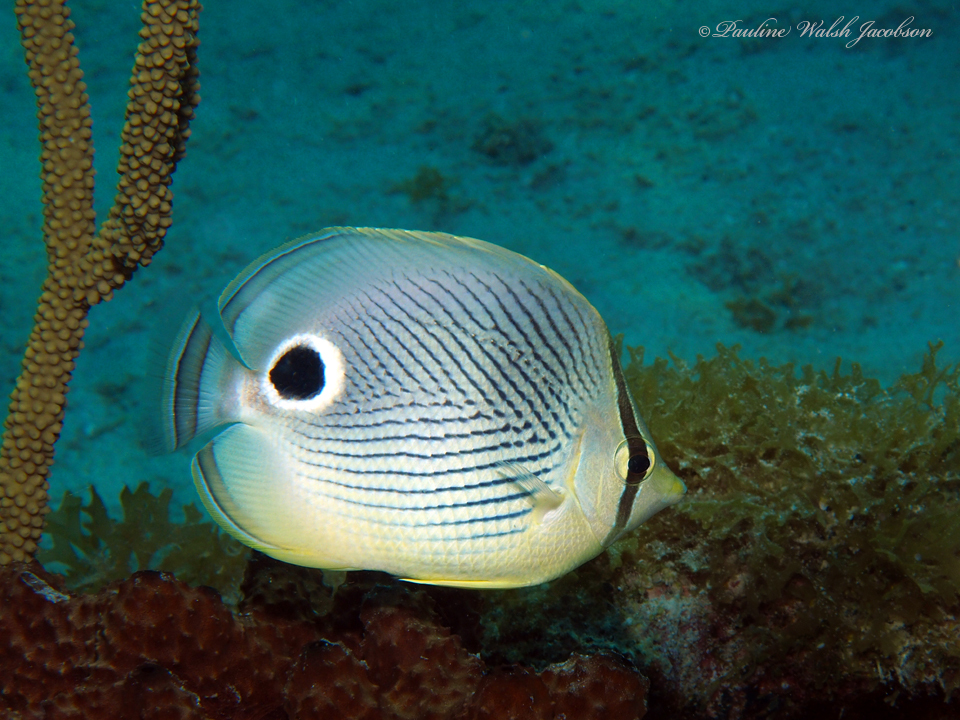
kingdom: Animalia
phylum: Chordata
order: Perciformes
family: Chaetodontidae
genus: Chaetodon
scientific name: Chaetodon capistratus
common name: Kete
